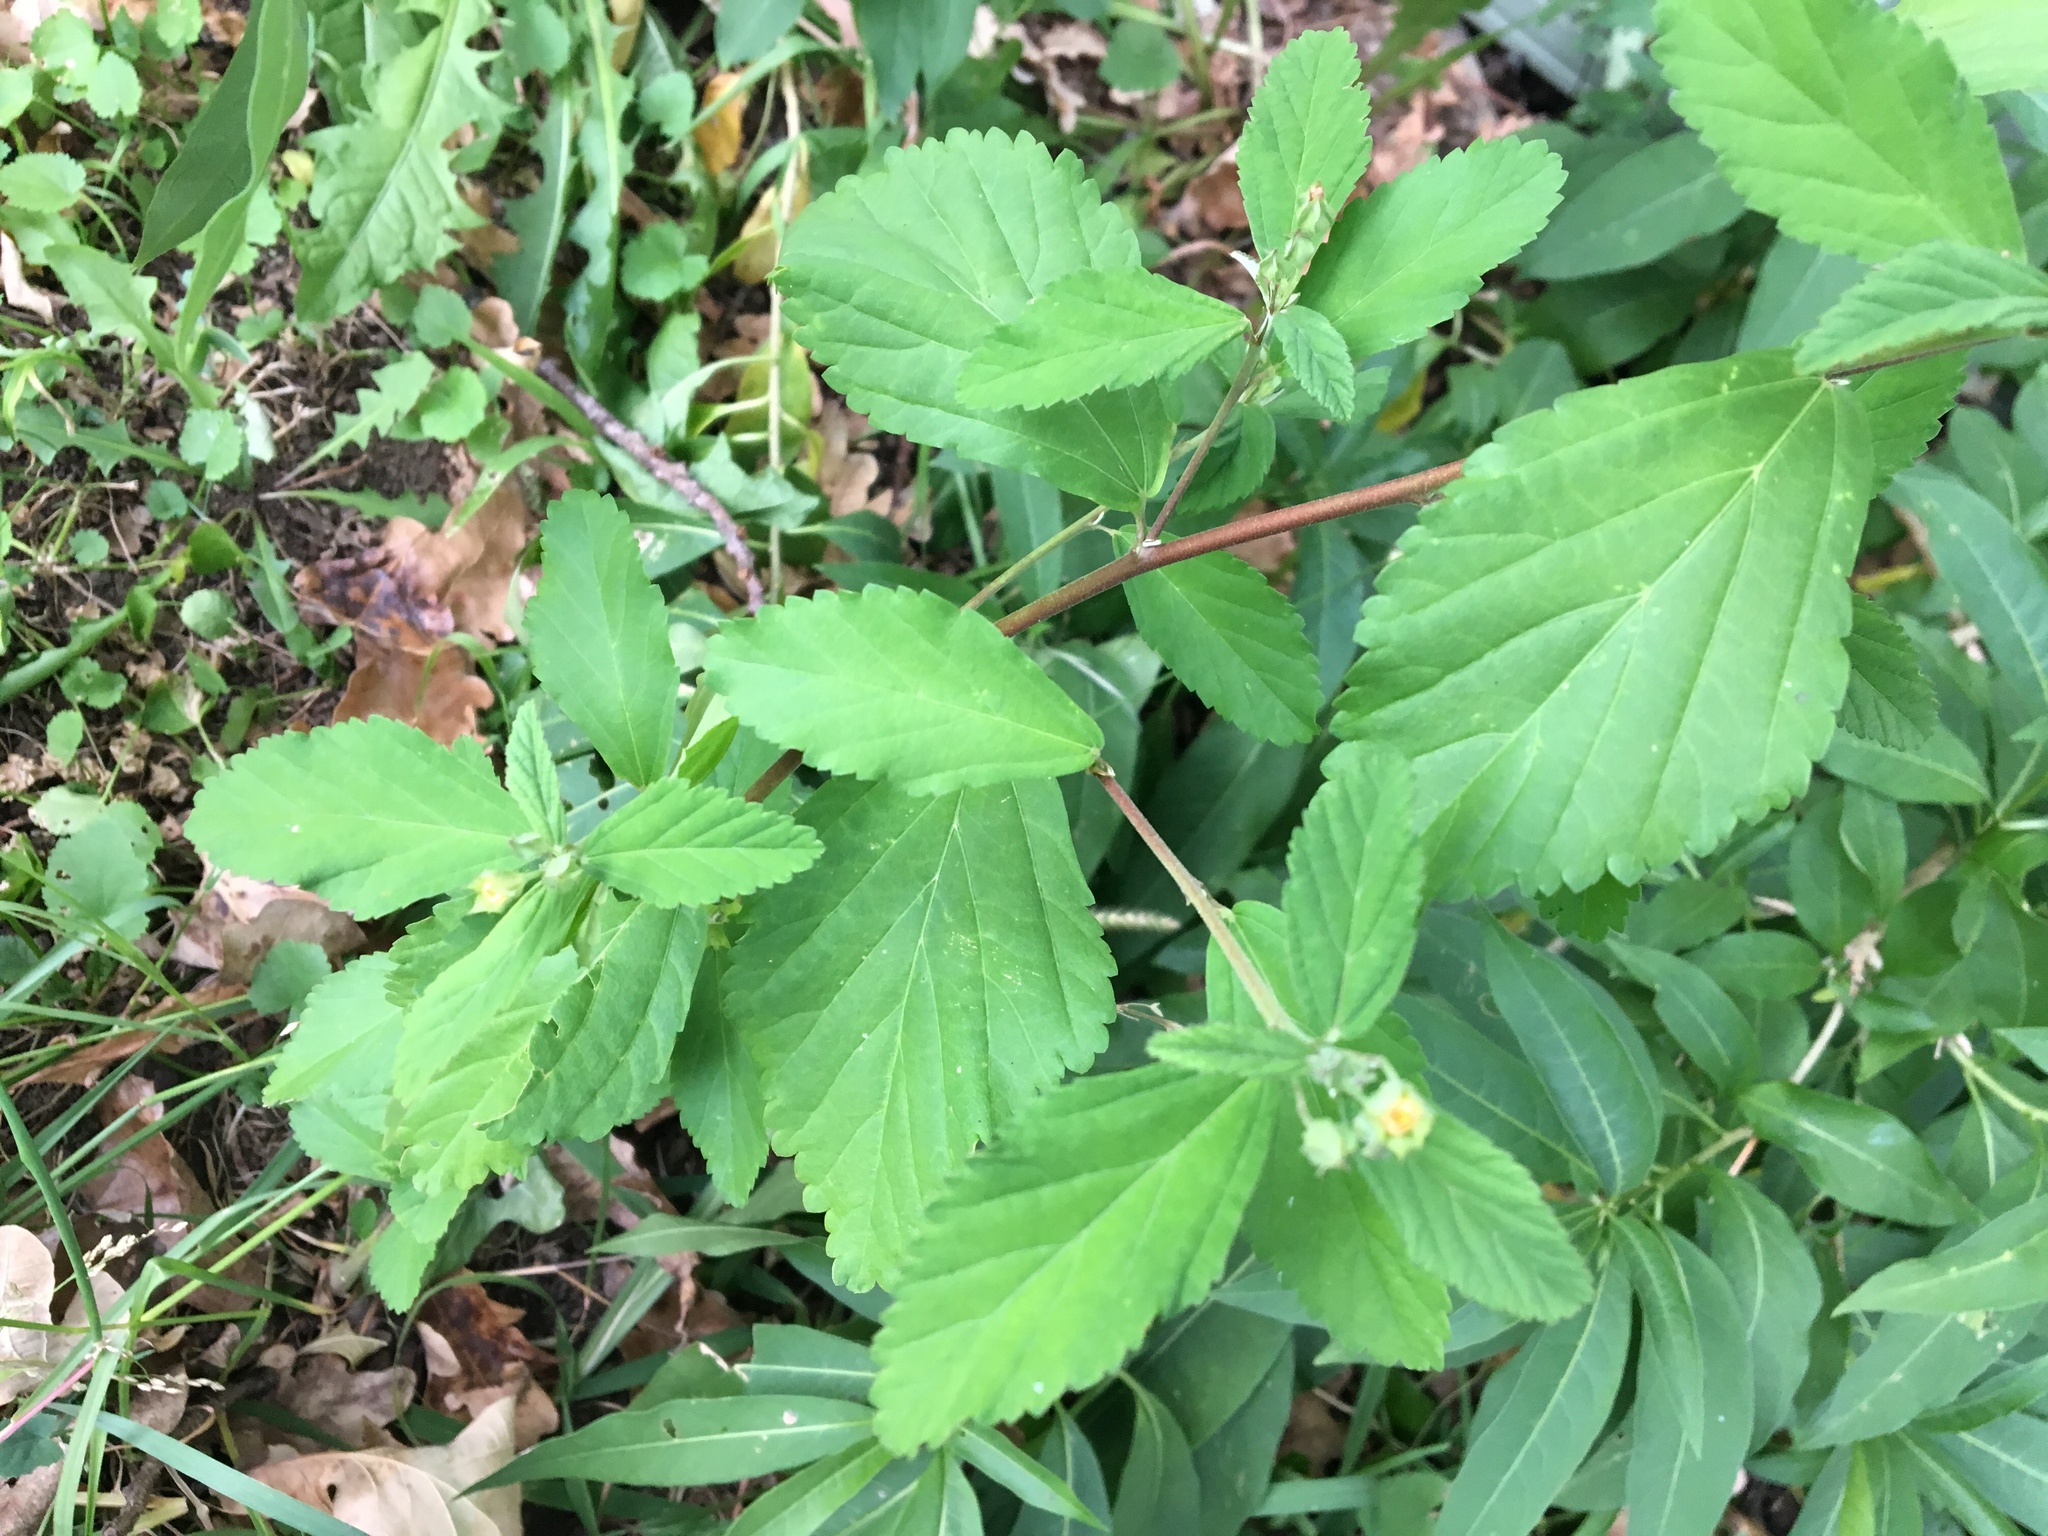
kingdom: Plantae
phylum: Tracheophyta
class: Magnoliopsida
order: Malvales
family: Malvaceae
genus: Sida
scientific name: Sida rhombifolia
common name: Queensland-hemp
